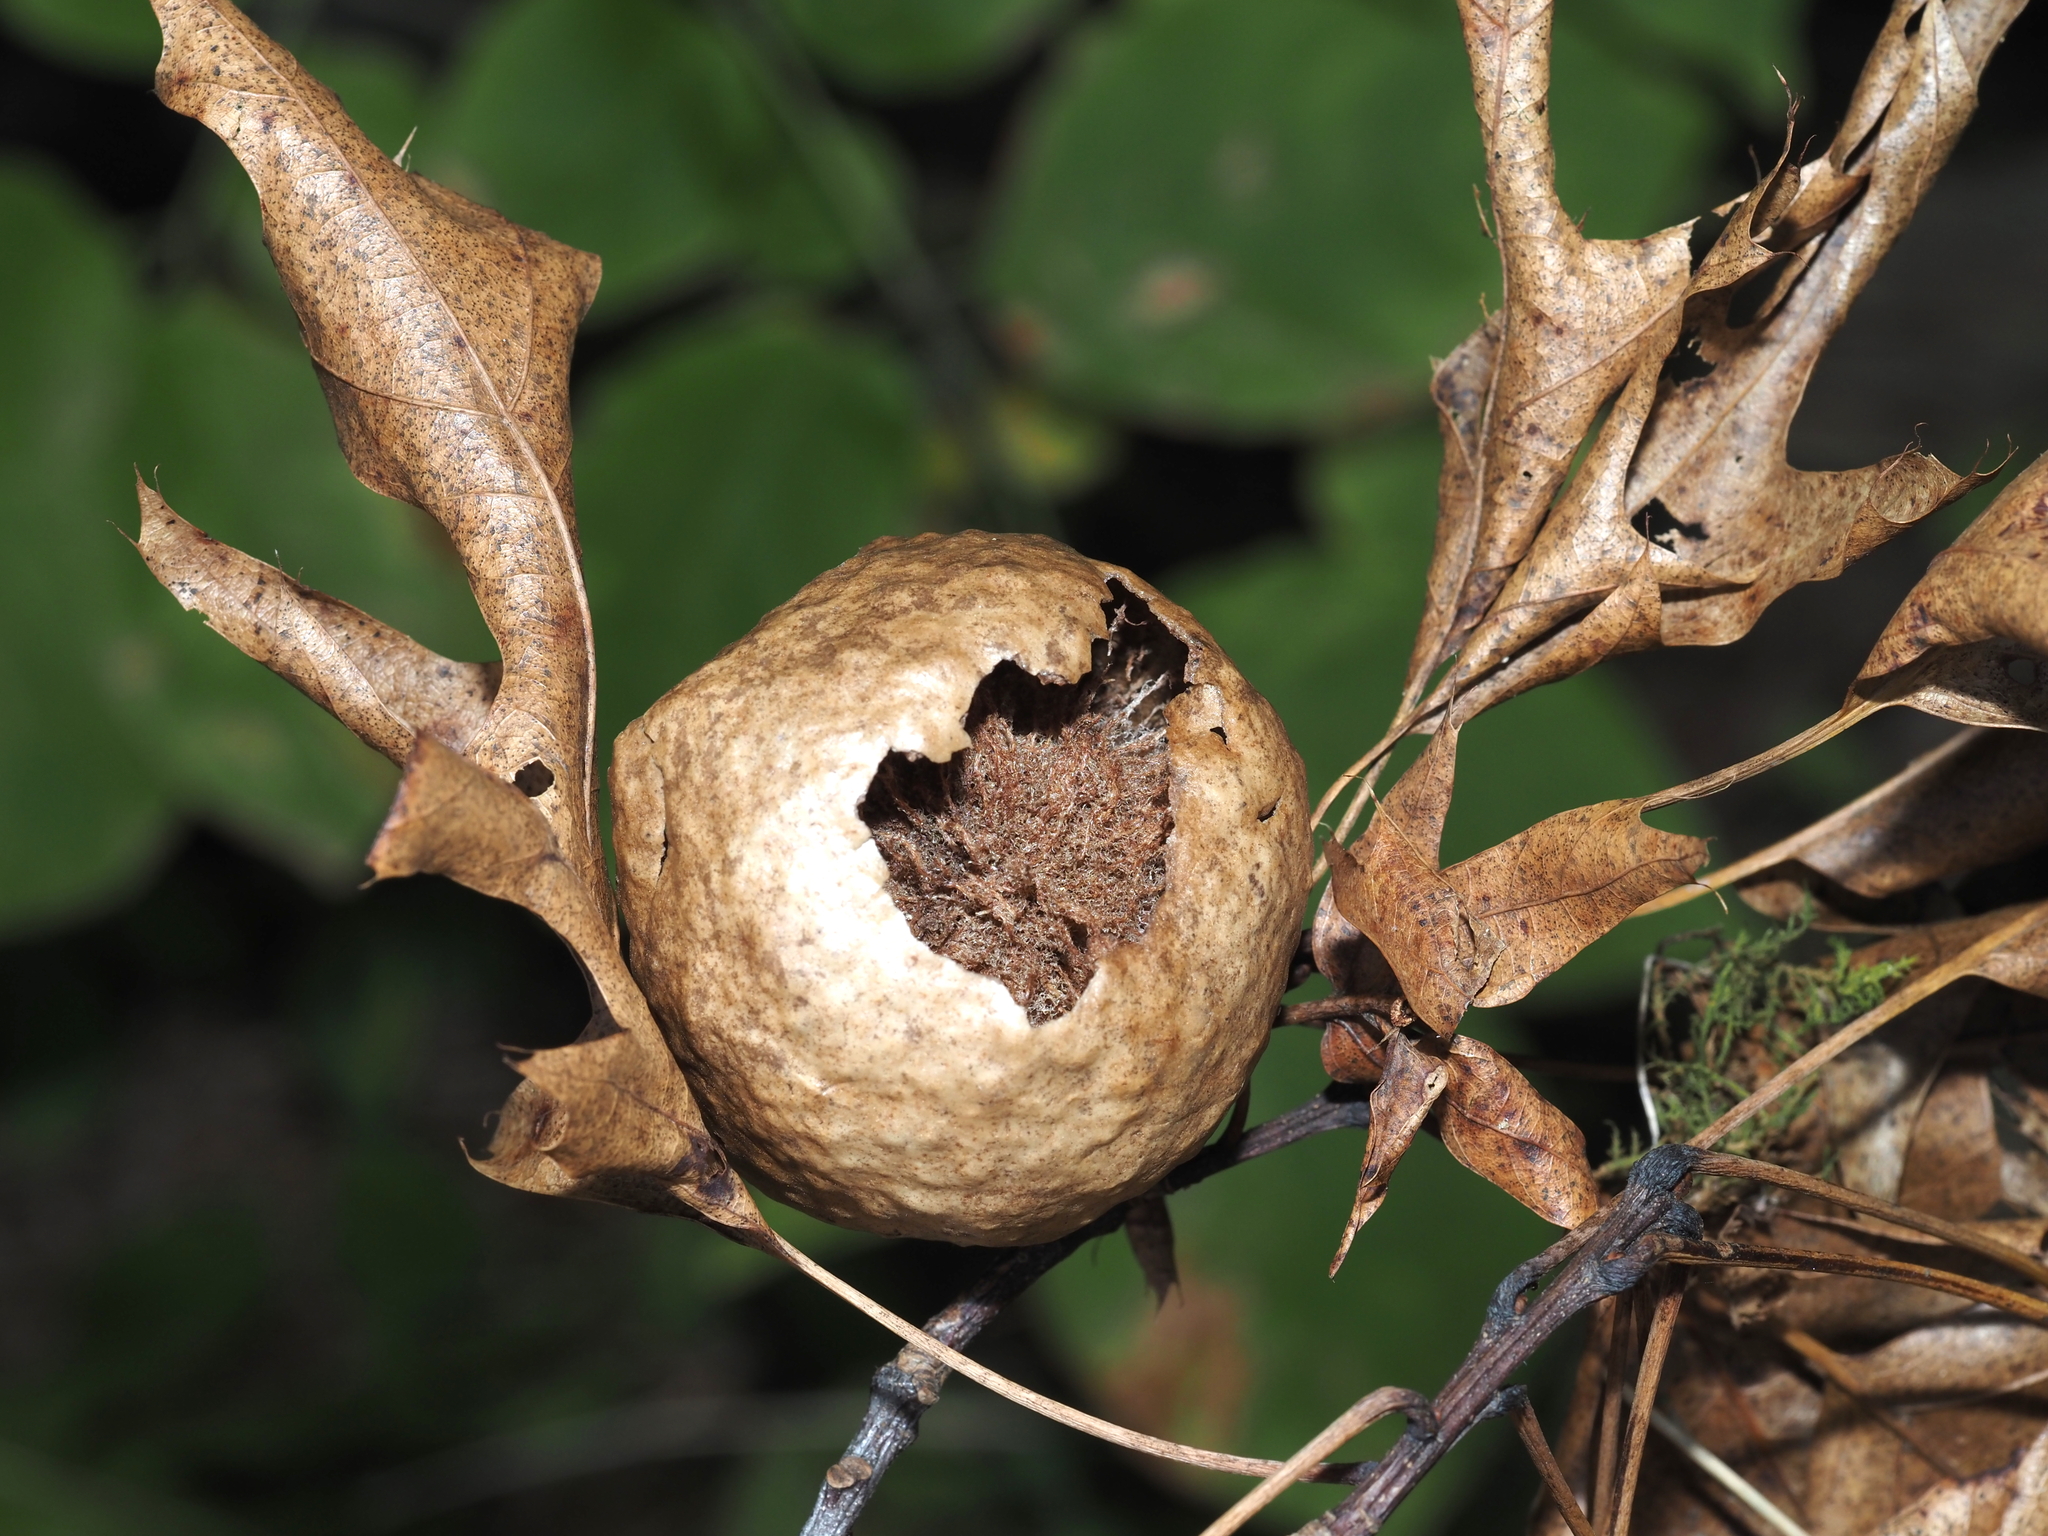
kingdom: Animalia
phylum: Arthropoda
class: Insecta
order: Hymenoptera
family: Cynipidae
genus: Amphibolips
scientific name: Amphibolips
